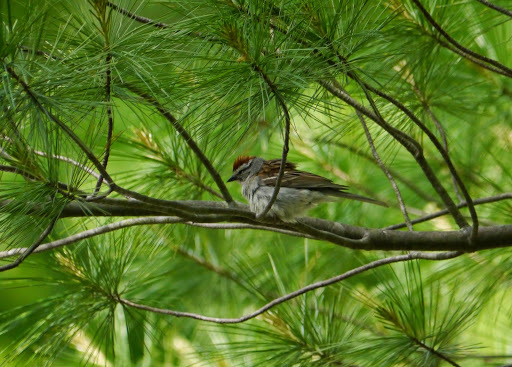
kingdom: Animalia
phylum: Chordata
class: Aves
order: Passeriformes
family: Passerellidae
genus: Spizella
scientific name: Spizella passerina
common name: Chipping sparrow
